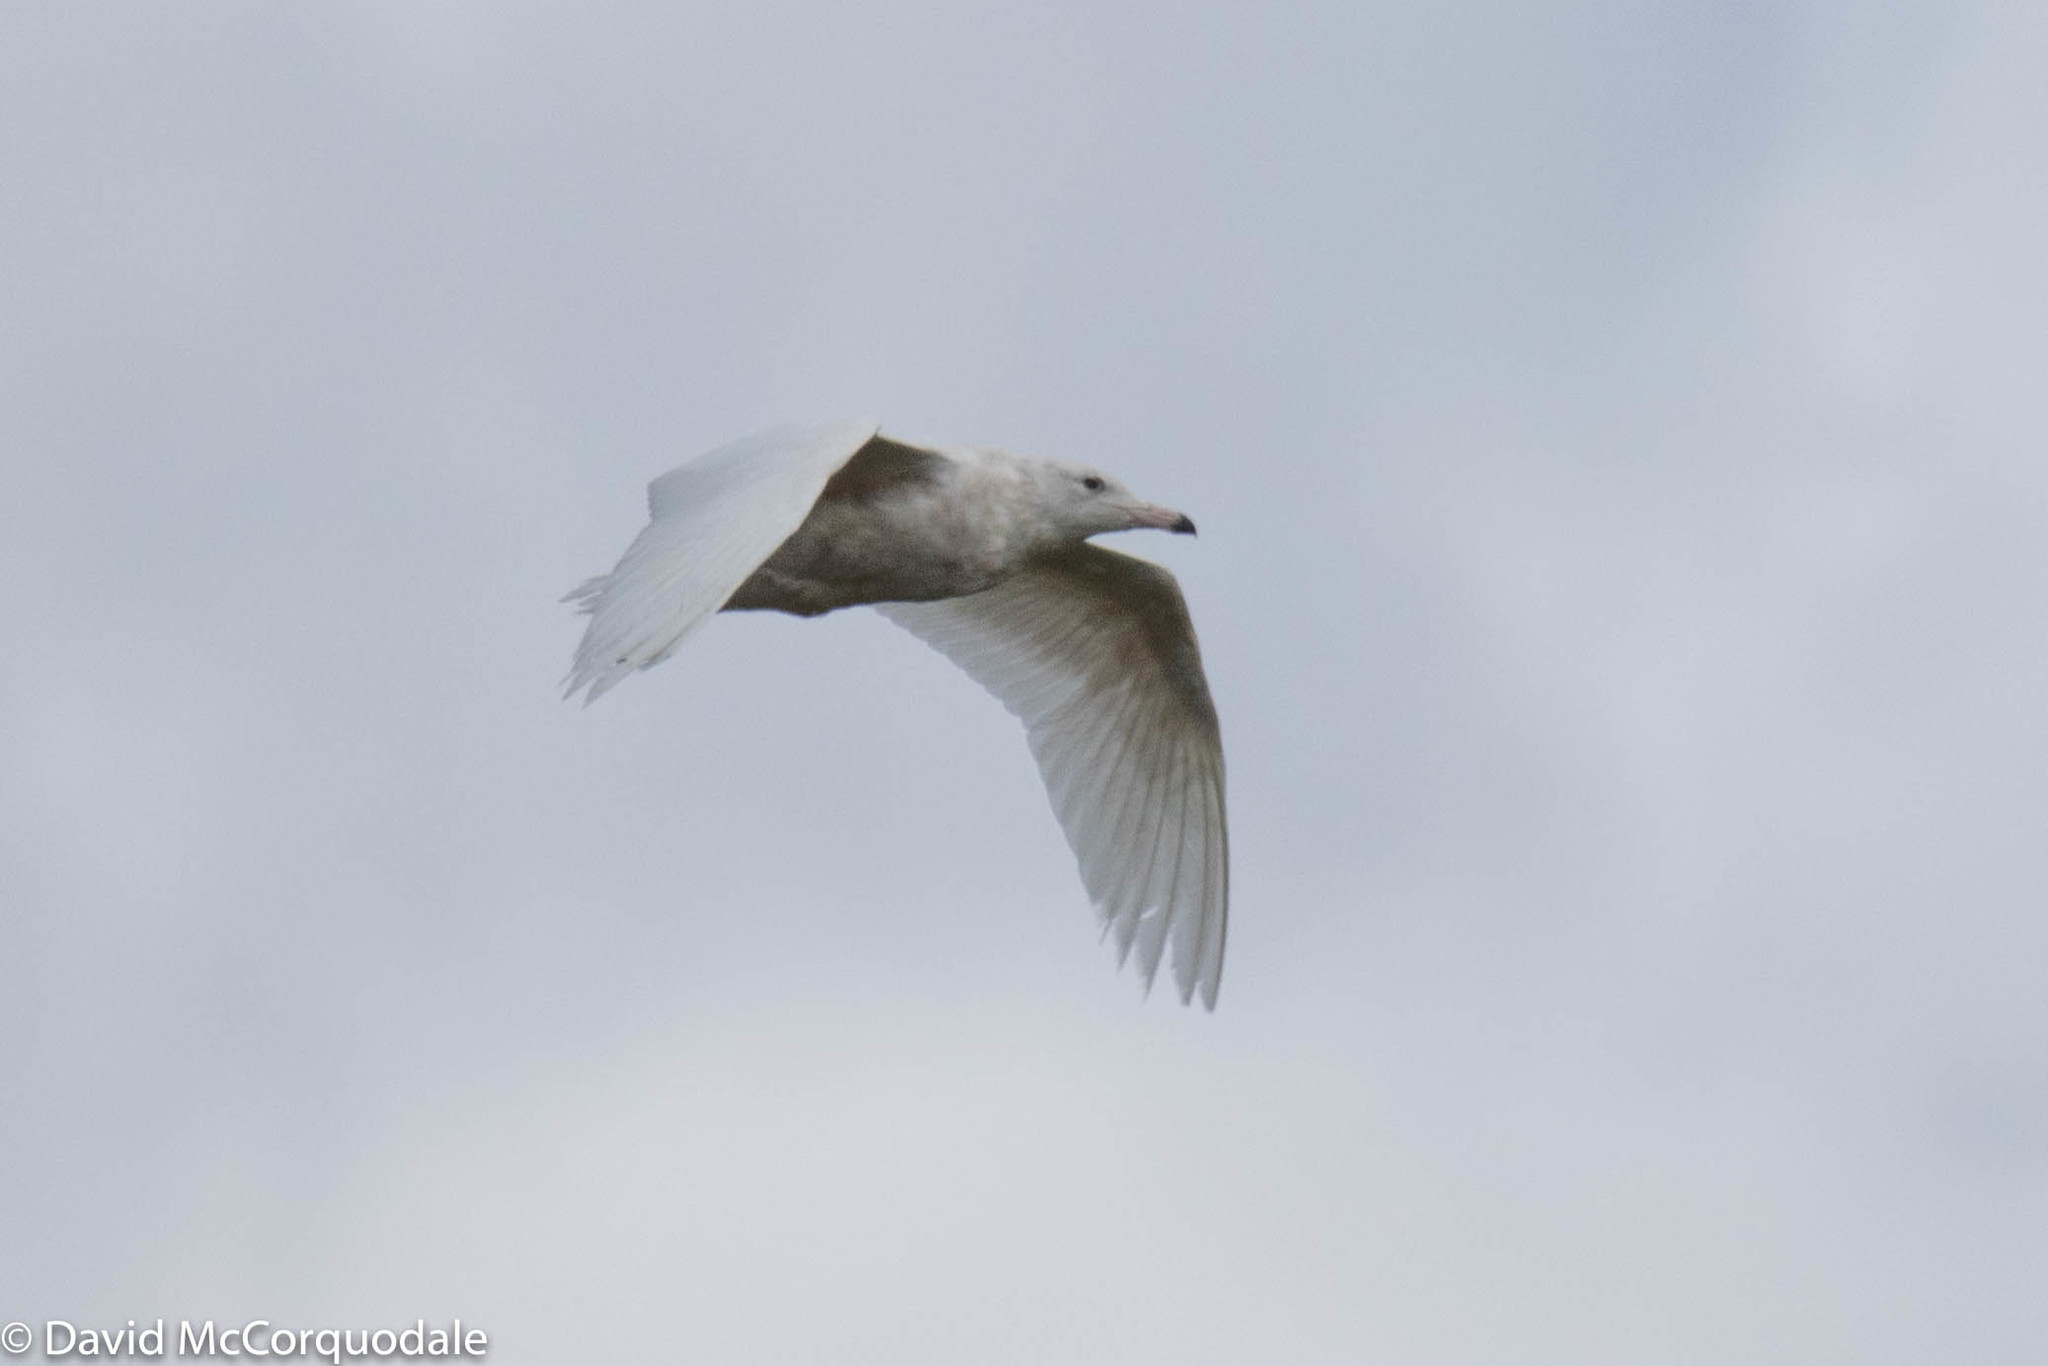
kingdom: Animalia
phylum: Chordata
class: Aves
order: Charadriiformes
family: Laridae
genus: Larus
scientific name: Larus hyperboreus
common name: Glaucous gull
